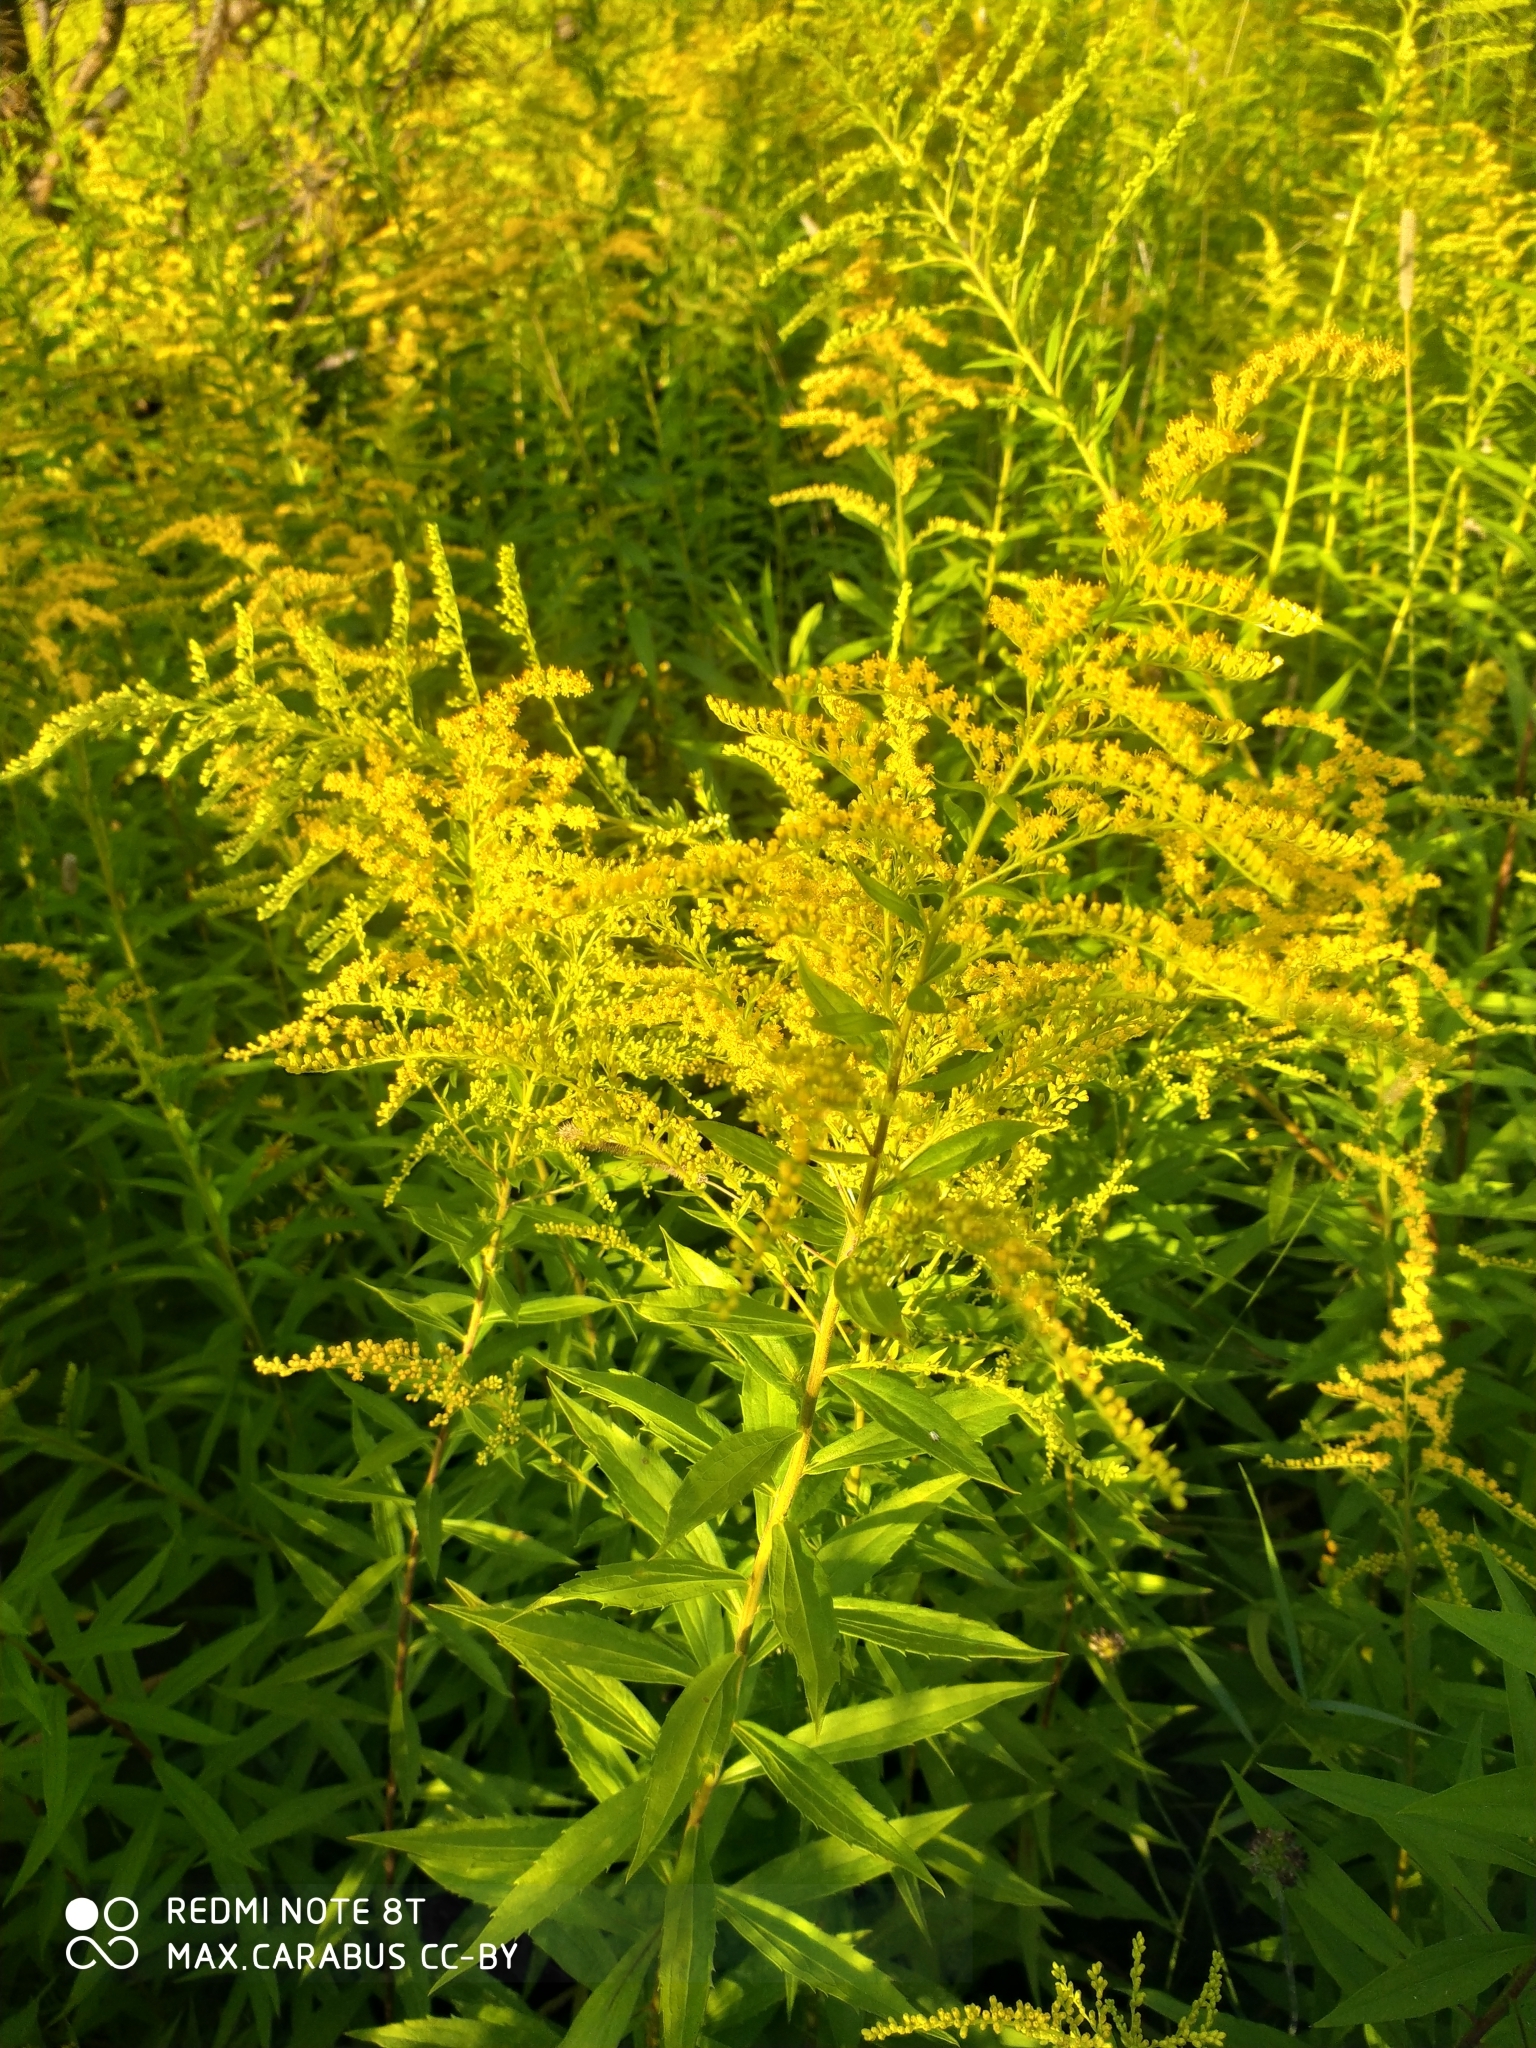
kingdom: Plantae
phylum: Tracheophyta
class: Magnoliopsida
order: Asterales
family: Asteraceae
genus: Solidago
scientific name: Solidago canadensis
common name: Canada goldenrod
